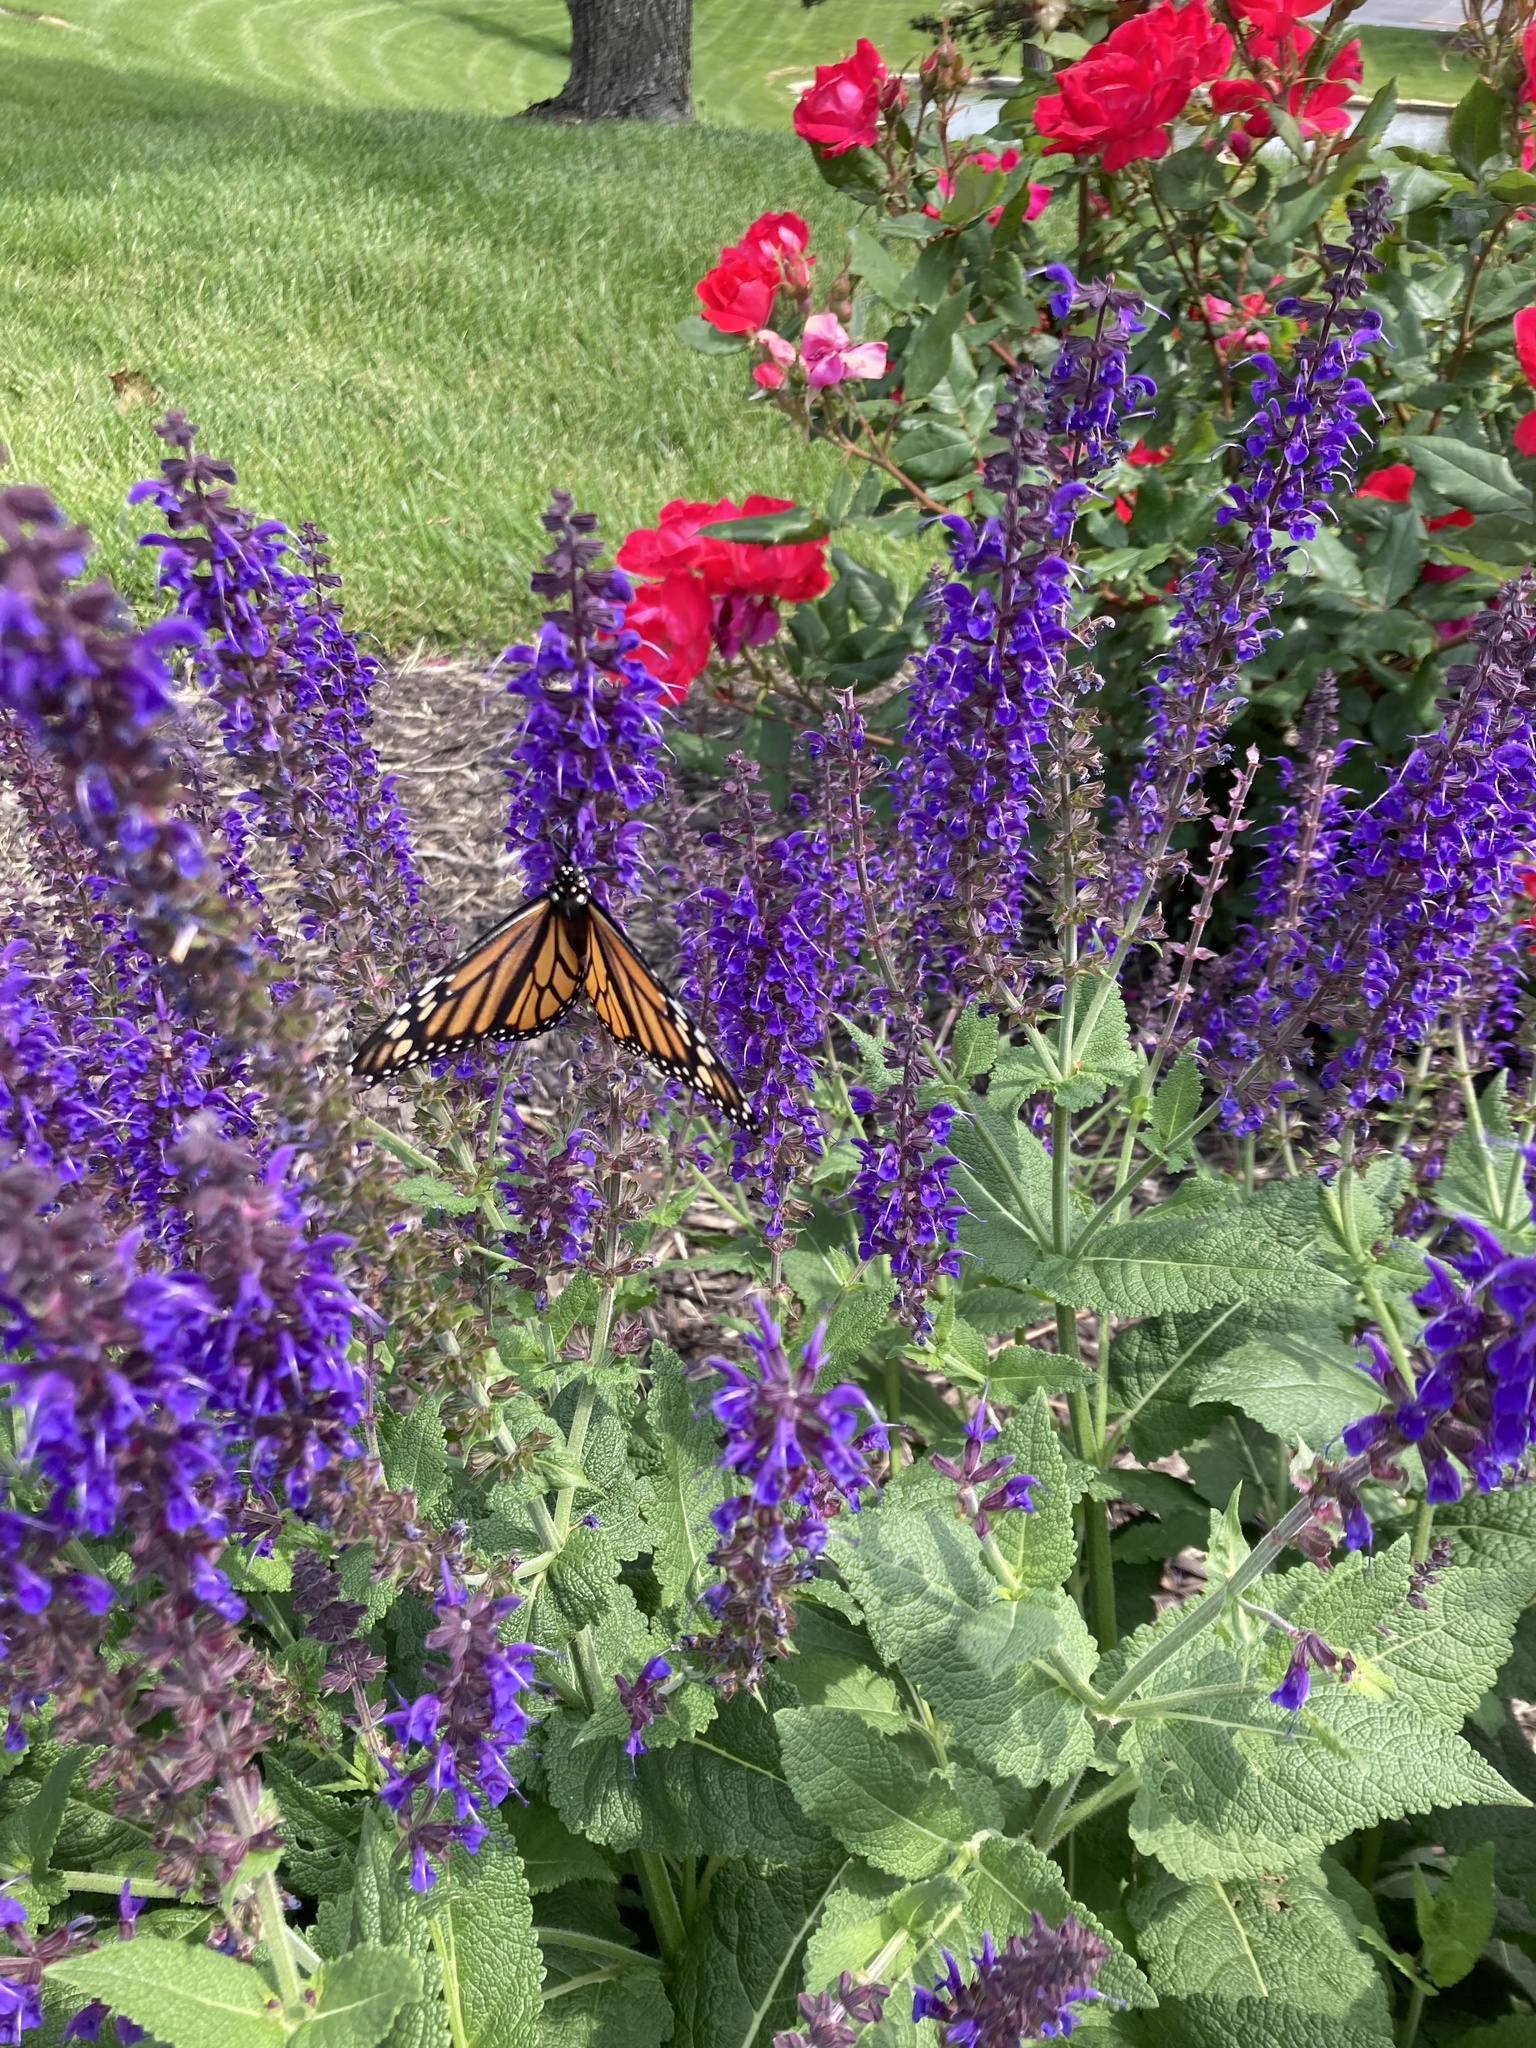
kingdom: Animalia
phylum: Arthropoda
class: Insecta
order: Lepidoptera
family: Nymphalidae
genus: Danaus
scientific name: Danaus plexippus
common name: Monarch
